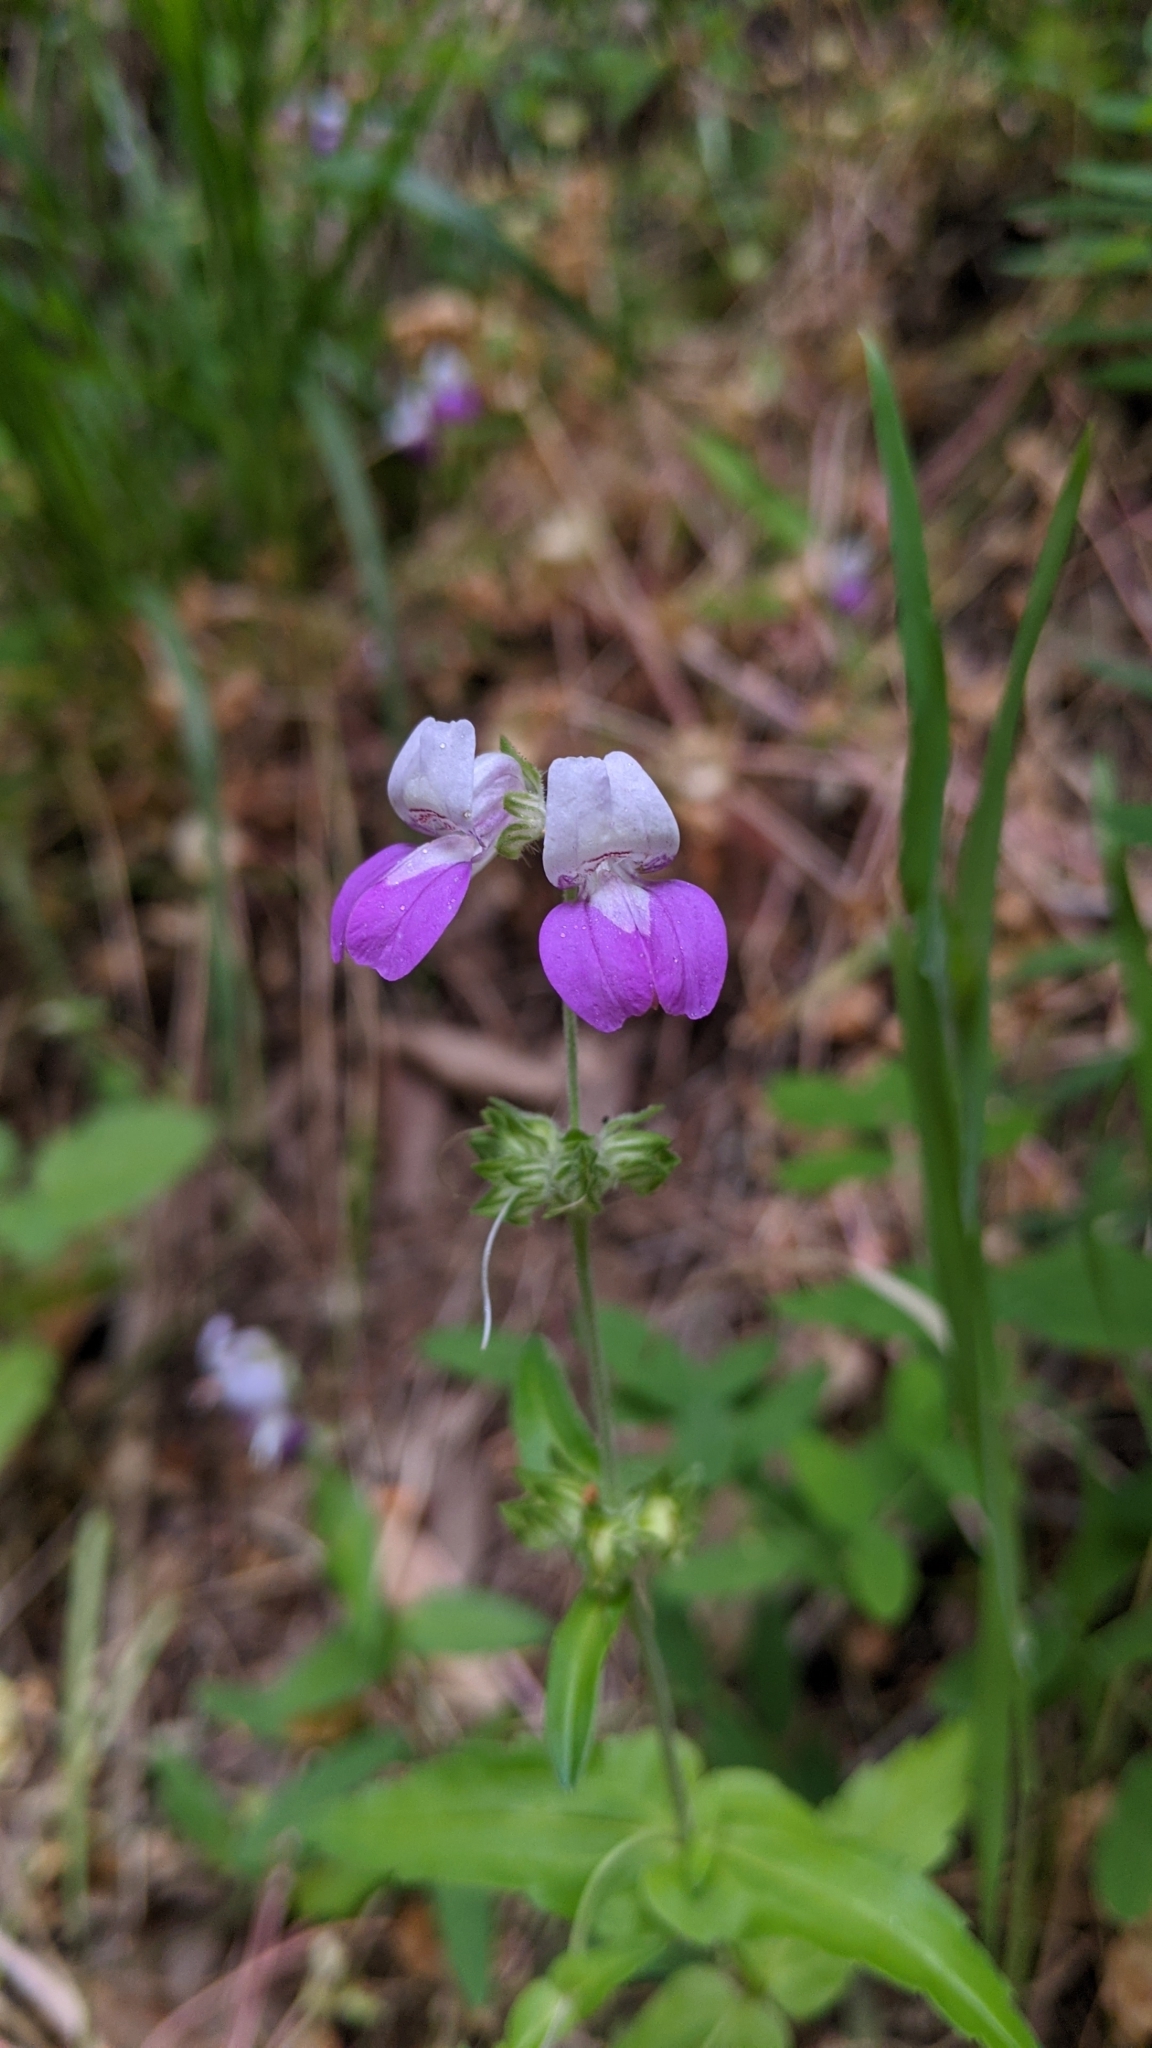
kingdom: Plantae
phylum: Tracheophyta
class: Magnoliopsida
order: Lamiales
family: Plantaginaceae
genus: Collinsia
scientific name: Collinsia heterophylla
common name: Chinese-houses
